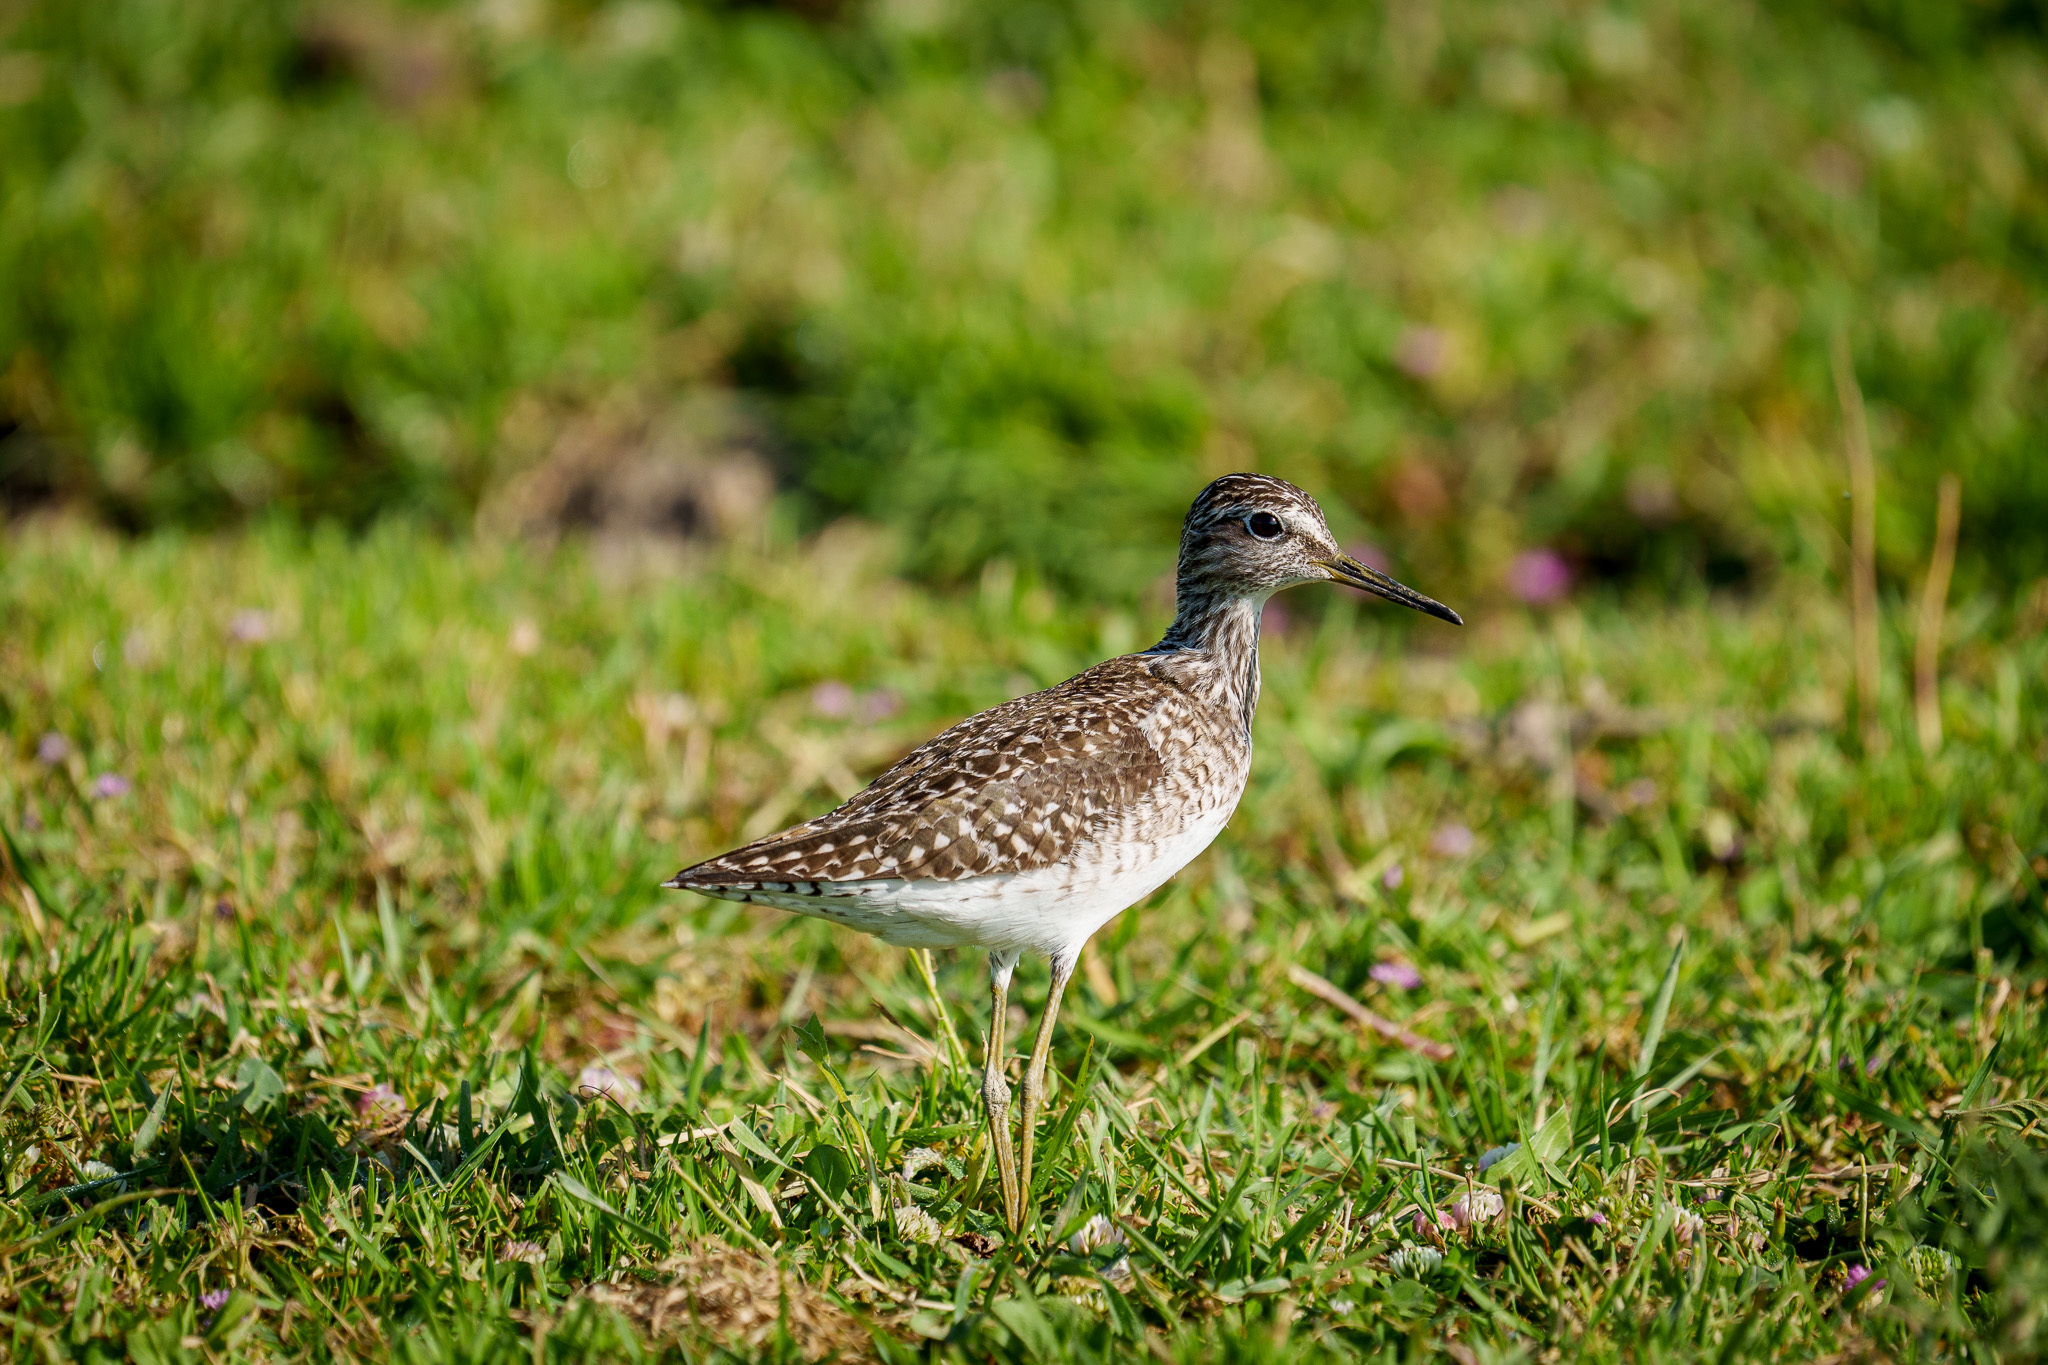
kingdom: Animalia
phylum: Chordata
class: Aves
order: Charadriiformes
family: Scolopacidae
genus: Tringa
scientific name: Tringa glareola
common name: Wood sandpiper
